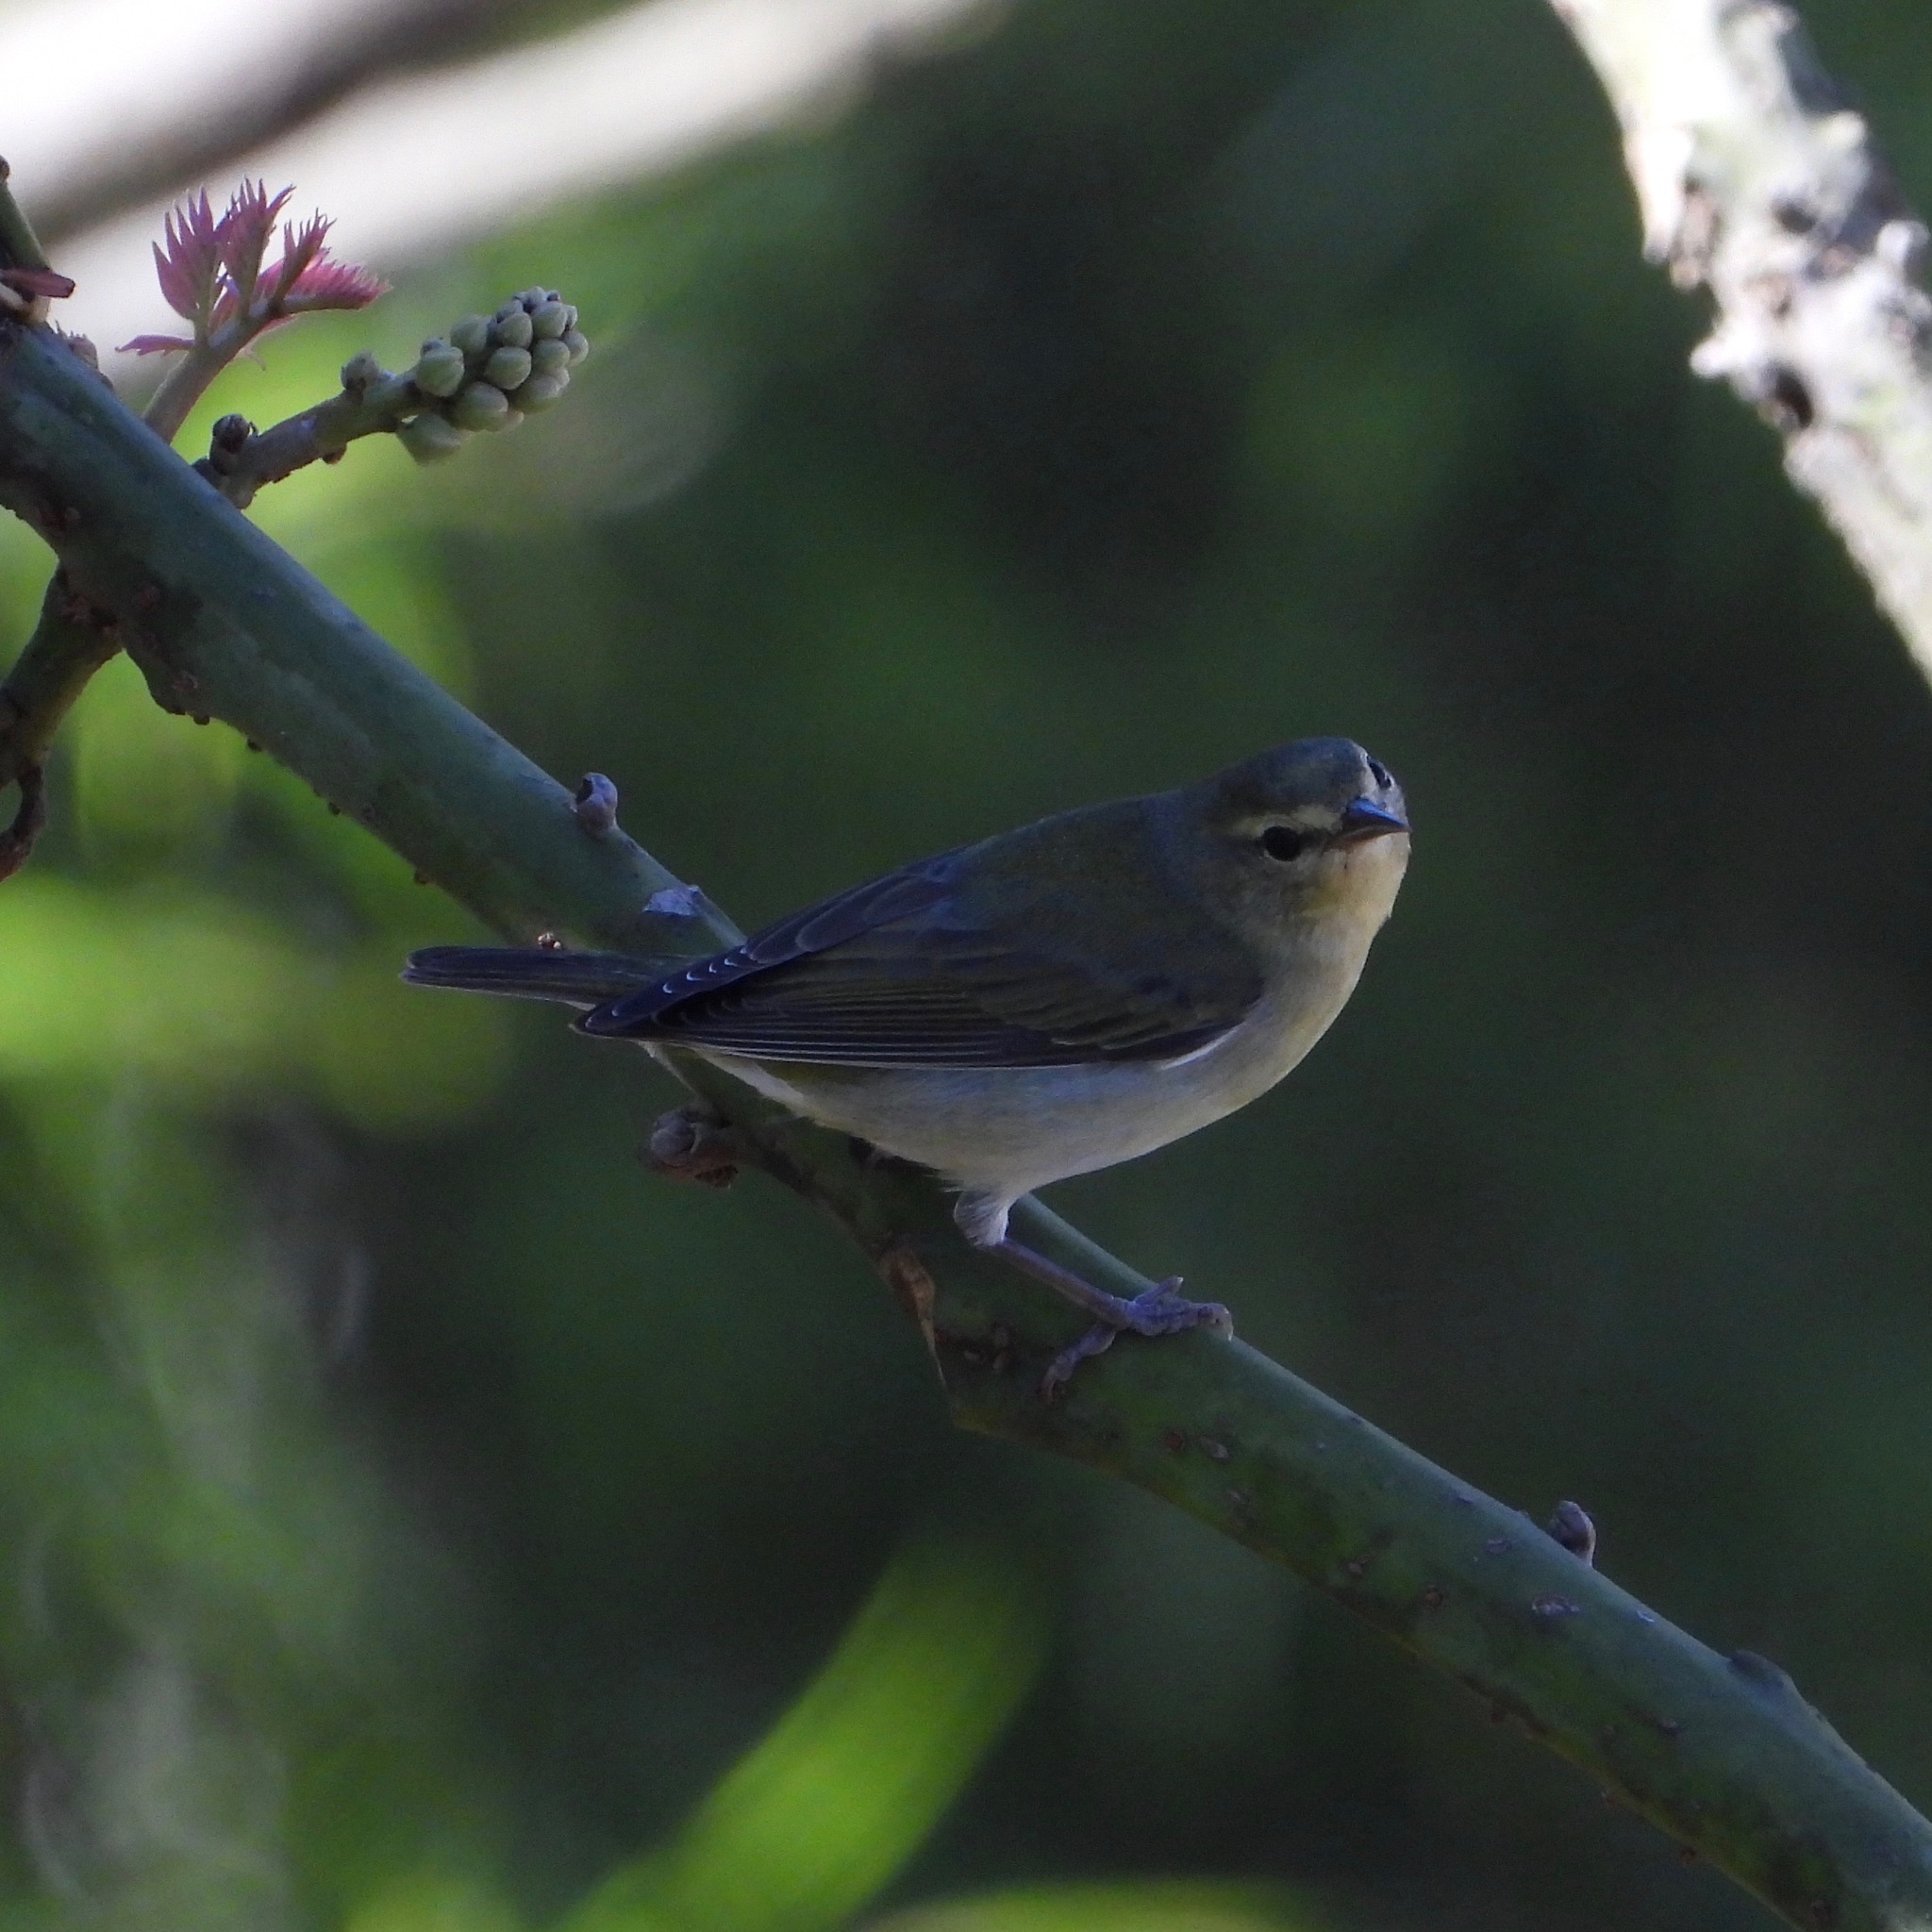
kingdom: Animalia
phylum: Chordata
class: Aves
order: Passeriformes
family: Parulidae
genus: Leiothlypis
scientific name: Leiothlypis peregrina
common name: Tennessee warbler
